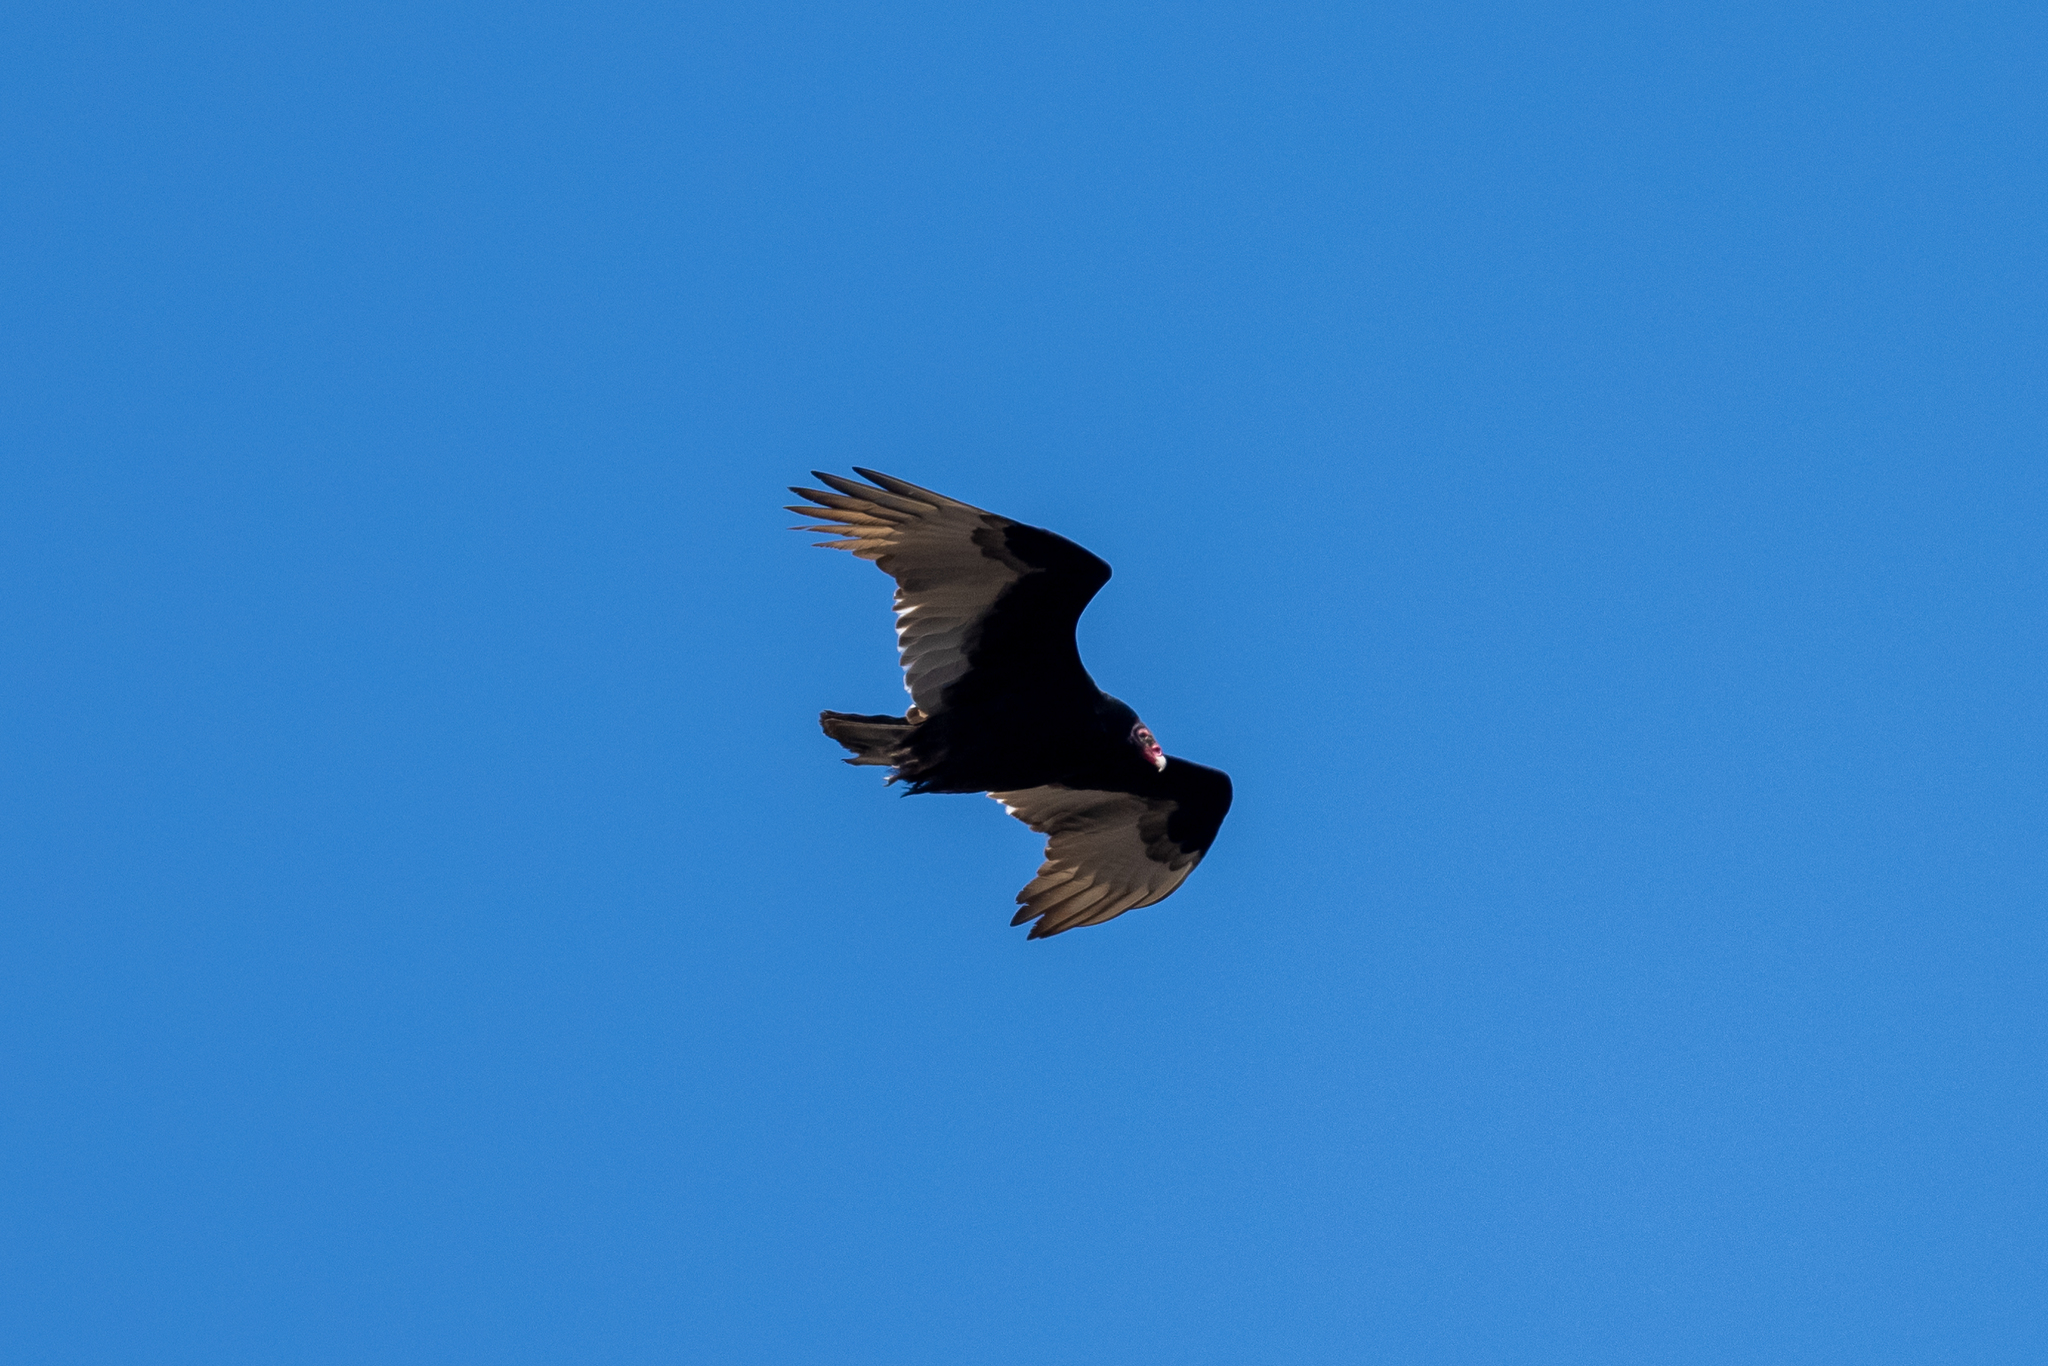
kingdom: Animalia
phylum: Chordata
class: Aves
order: Accipitriformes
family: Cathartidae
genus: Cathartes
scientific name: Cathartes aura
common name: Turkey vulture
